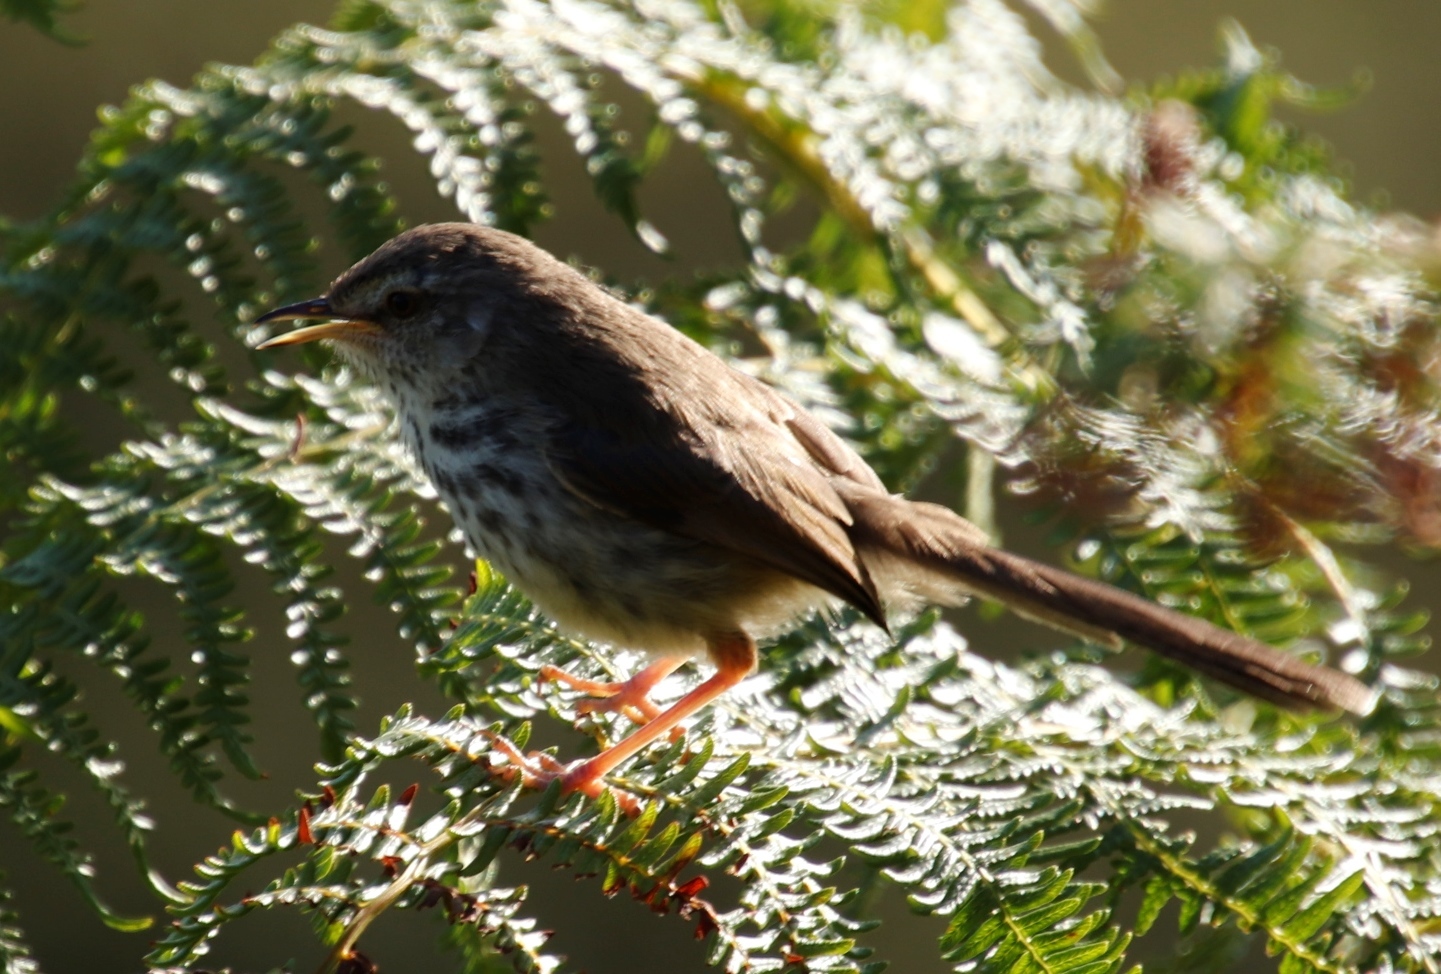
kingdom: Animalia
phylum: Chordata
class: Aves
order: Passeriformes
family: Cisticolidae
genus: Prinia
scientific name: Prinia maculosa
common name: Karoo prinia
